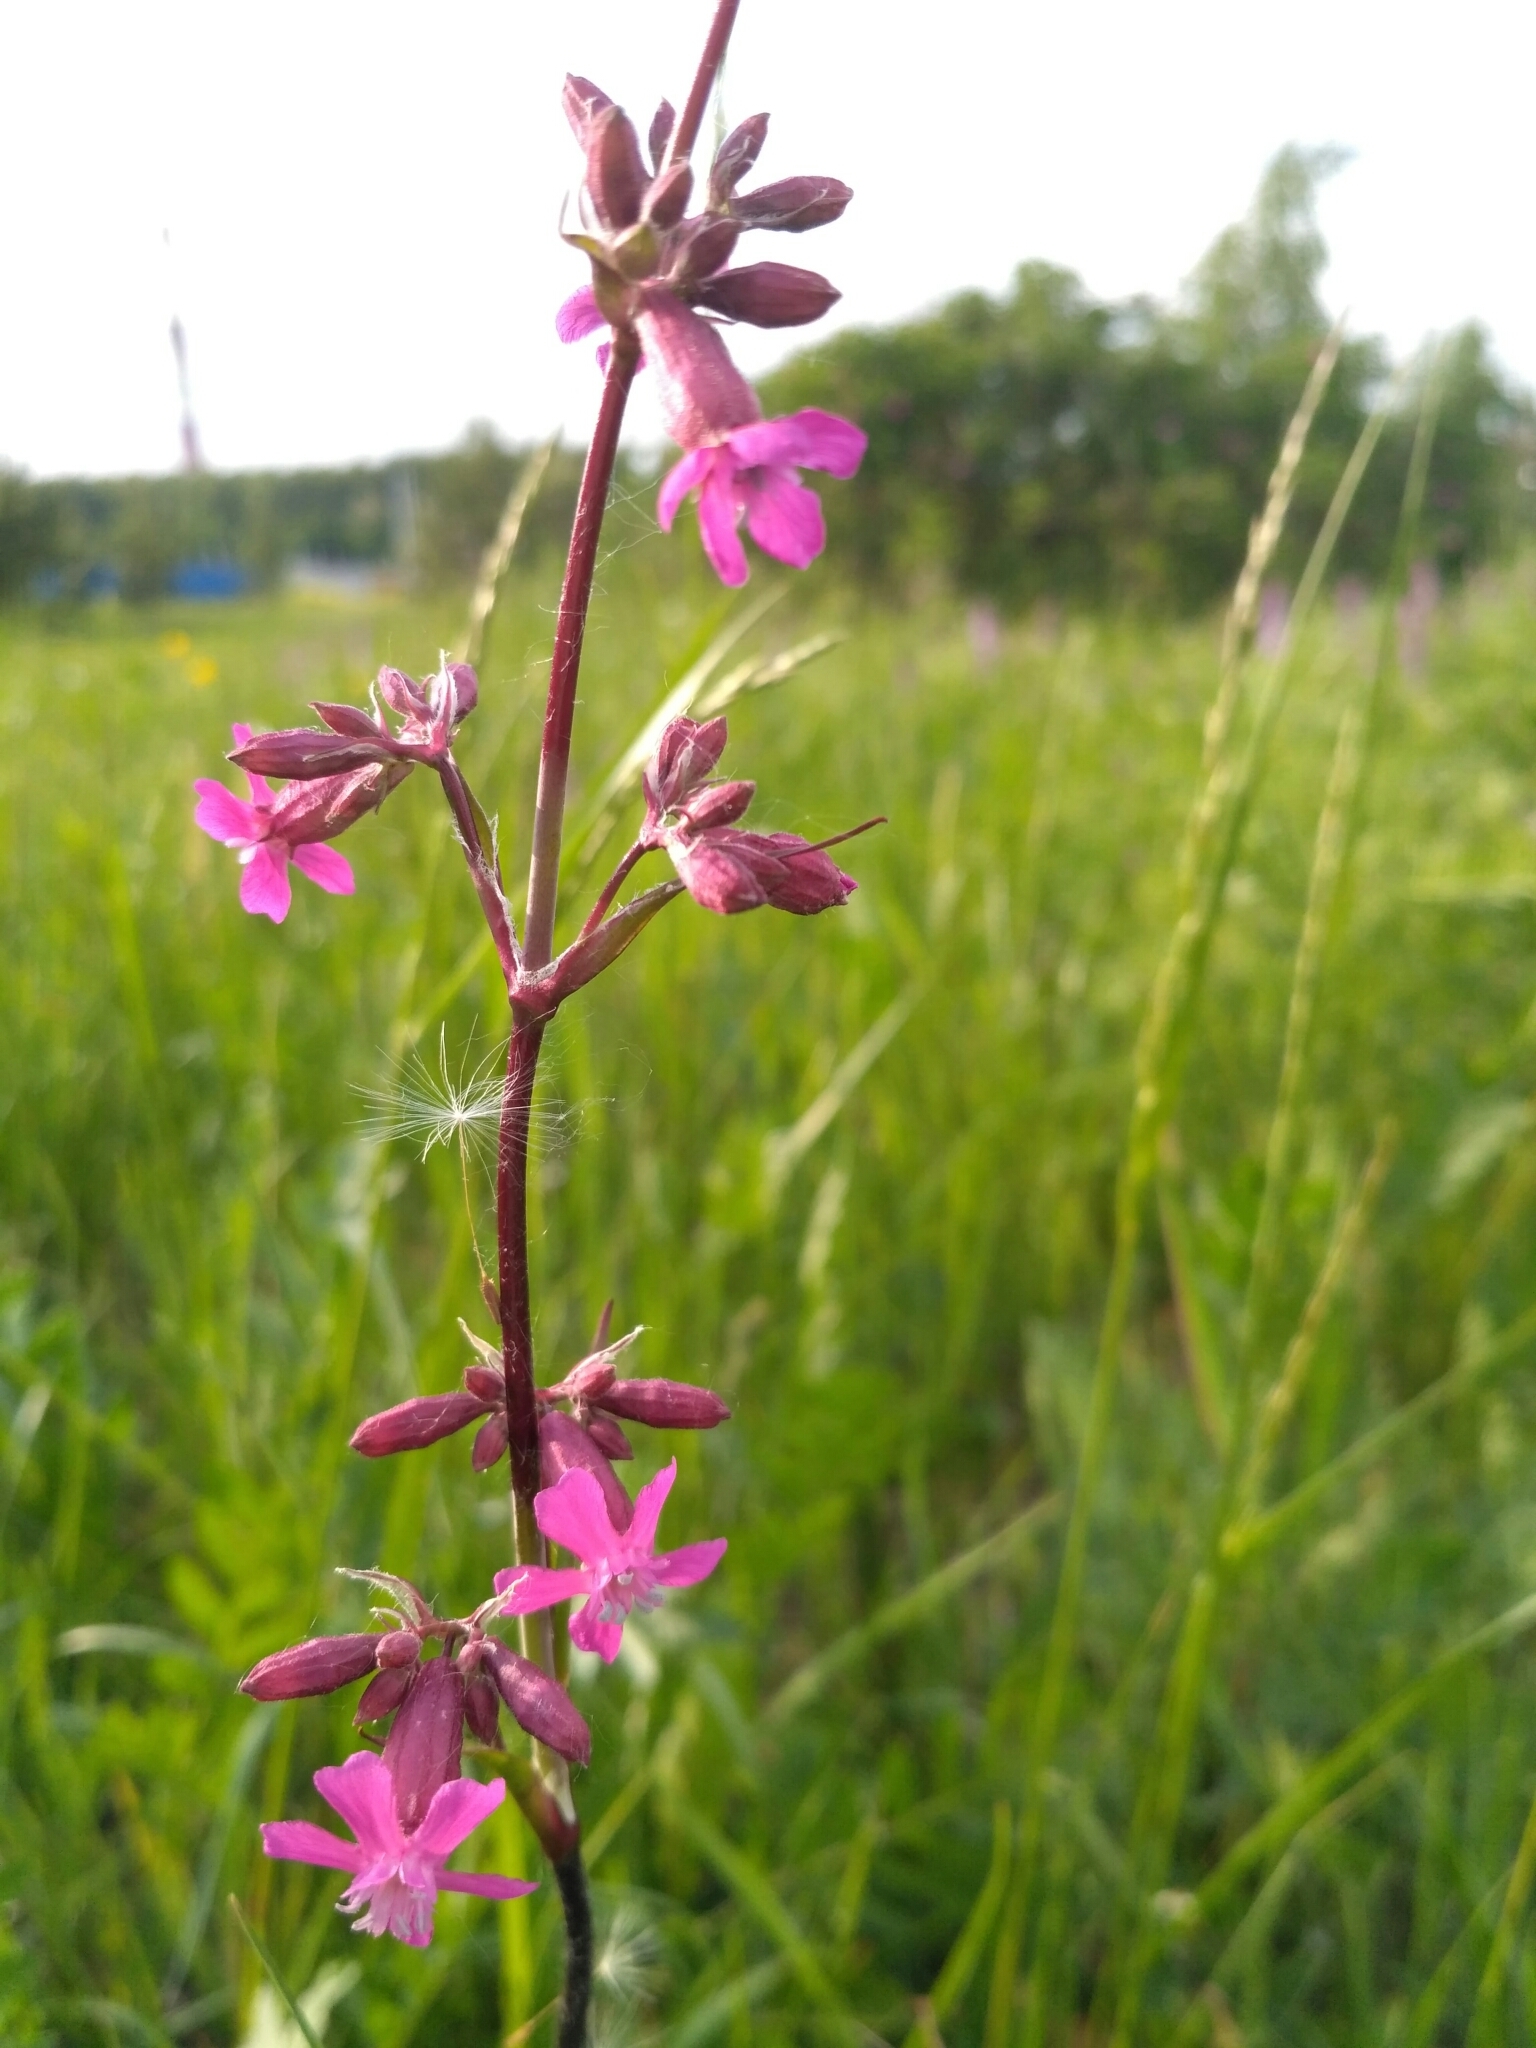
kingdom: Plantae
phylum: Tracheophyta
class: Magnoliopsida
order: Caryophyllales
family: Caryophyllaceae
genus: Viscaria
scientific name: Viscaria vulgaris
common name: Clammy campion
